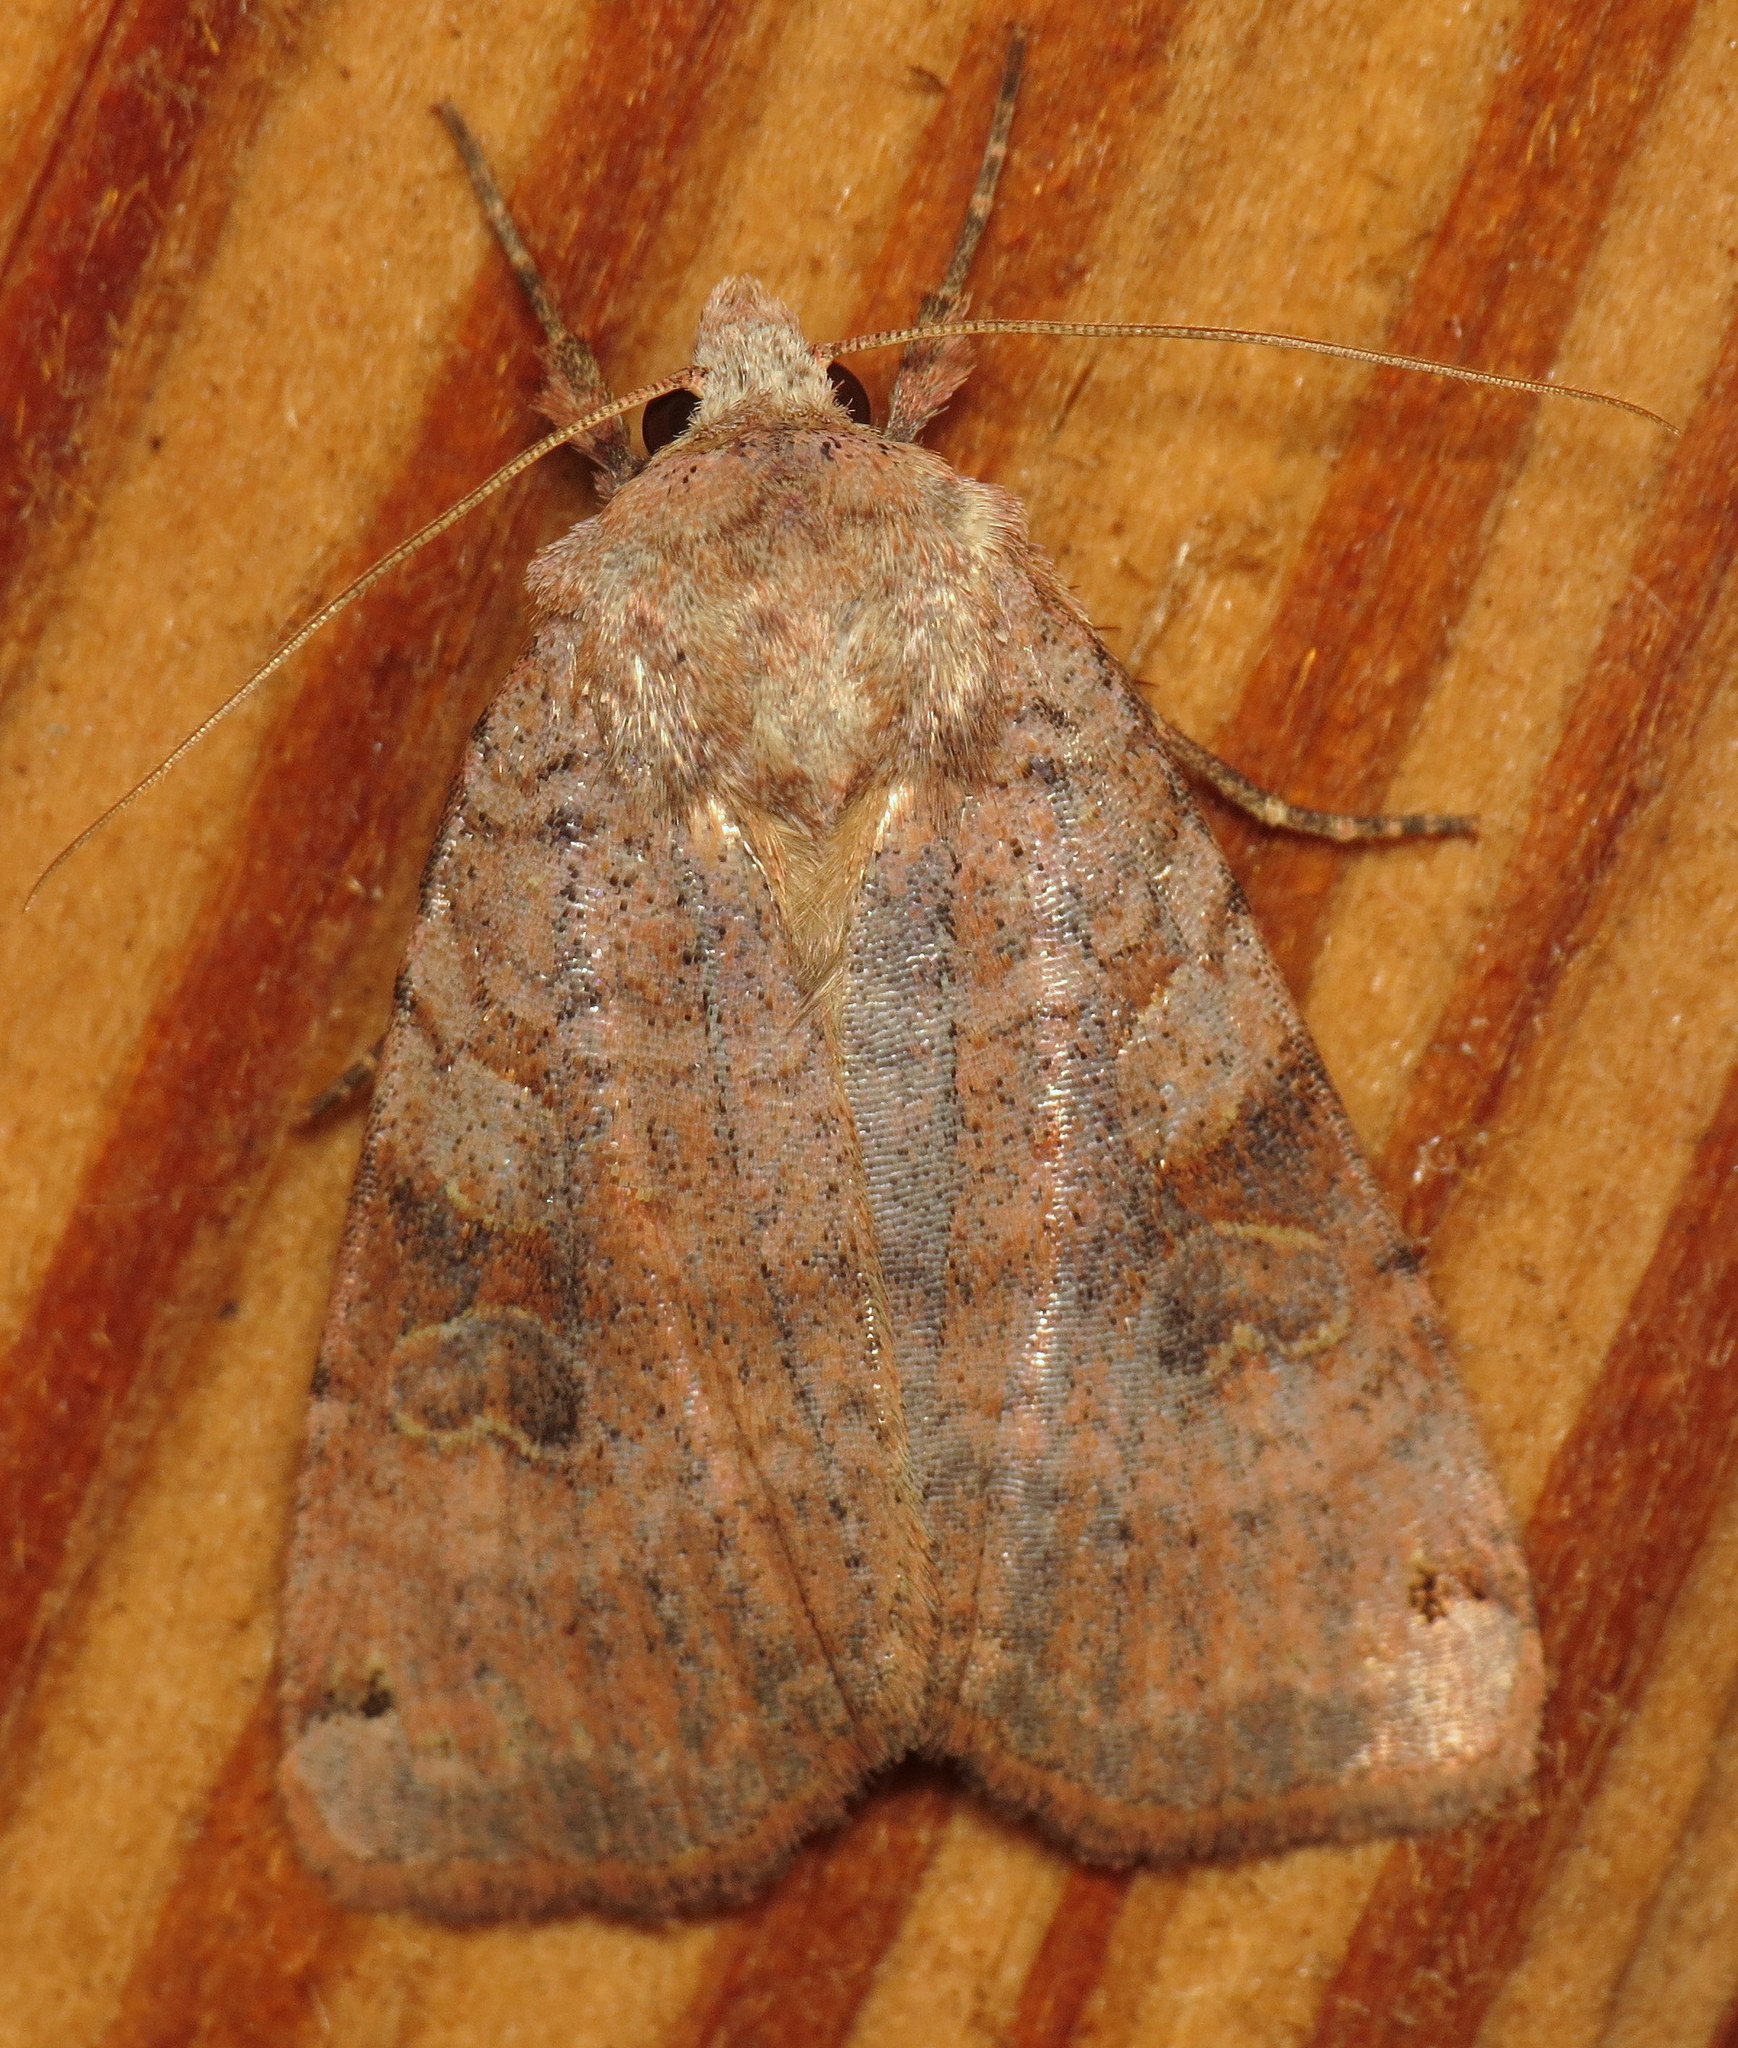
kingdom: Animalia
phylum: Arthropoda
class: Insecta
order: Lepidoptera
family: Noctuidae
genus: Xestia
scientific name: Xestia smithii
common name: Smith's dart
